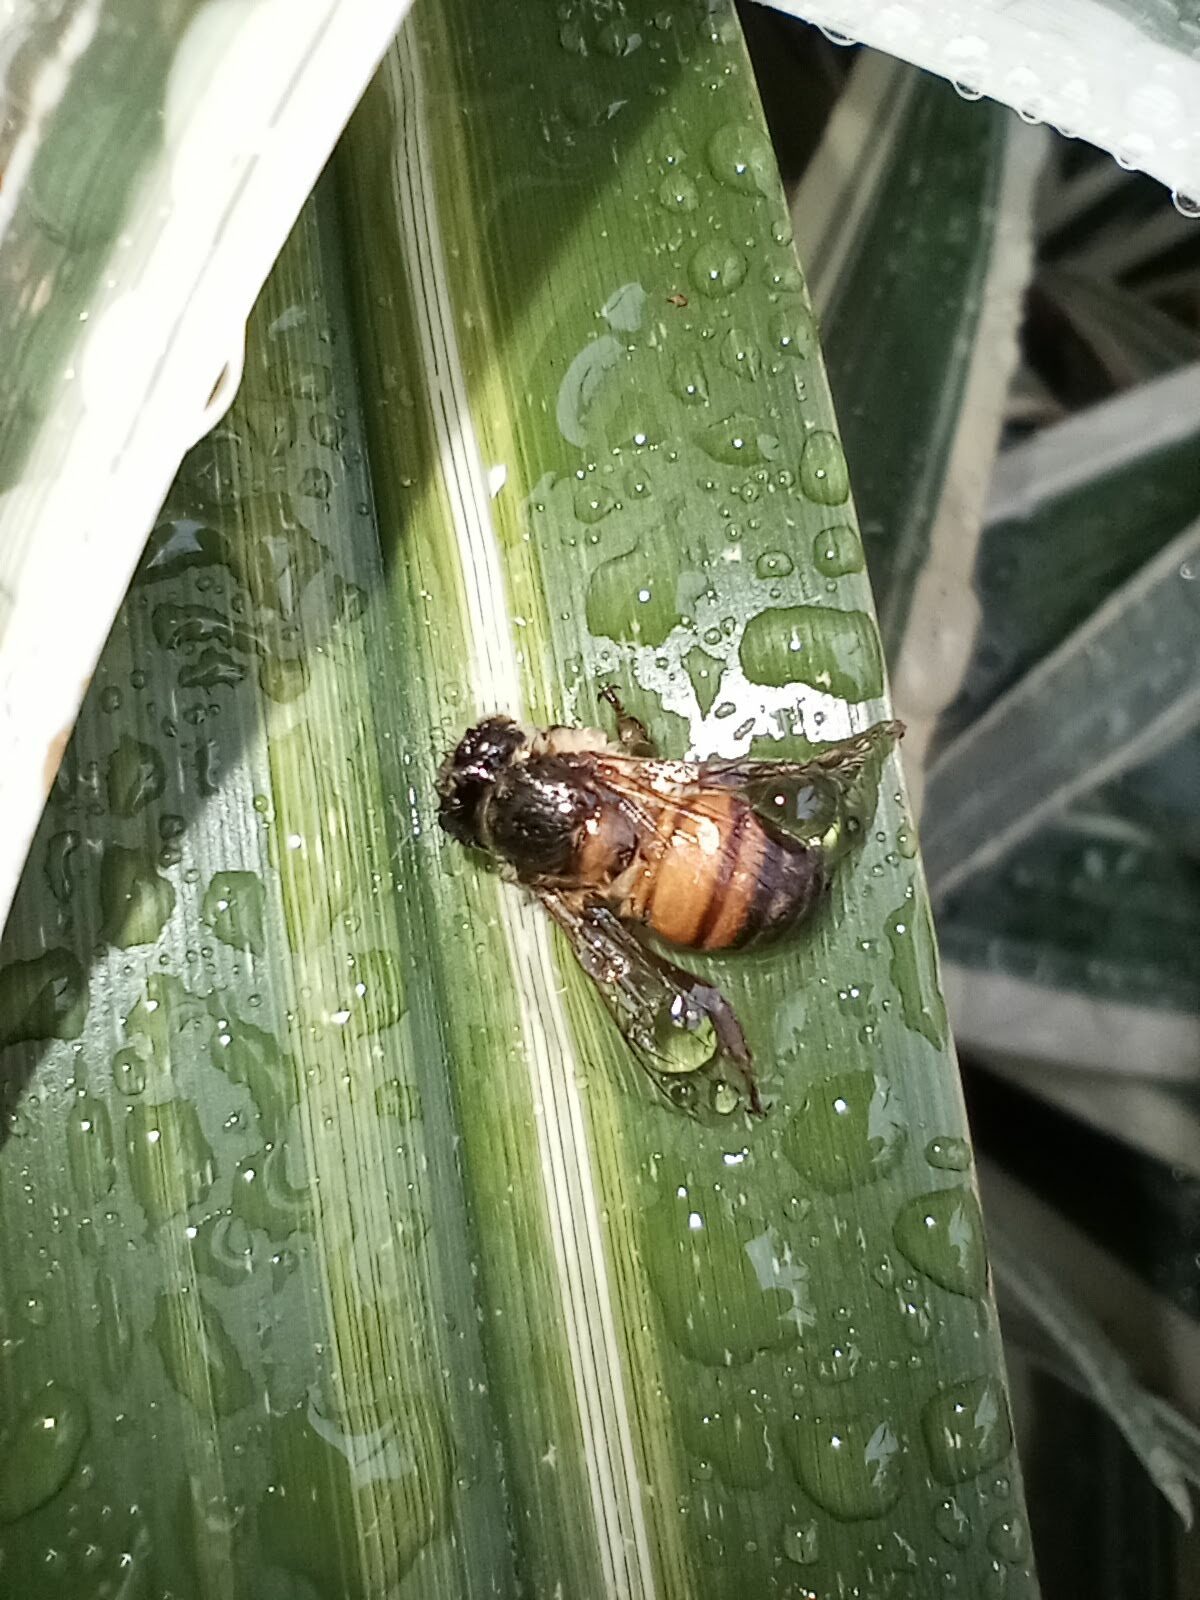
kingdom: Animalia
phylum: Arthropoda
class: Insecta
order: Hymenoptera
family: Apidae
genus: Apis
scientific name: Apis mellifera
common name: Honey bee
